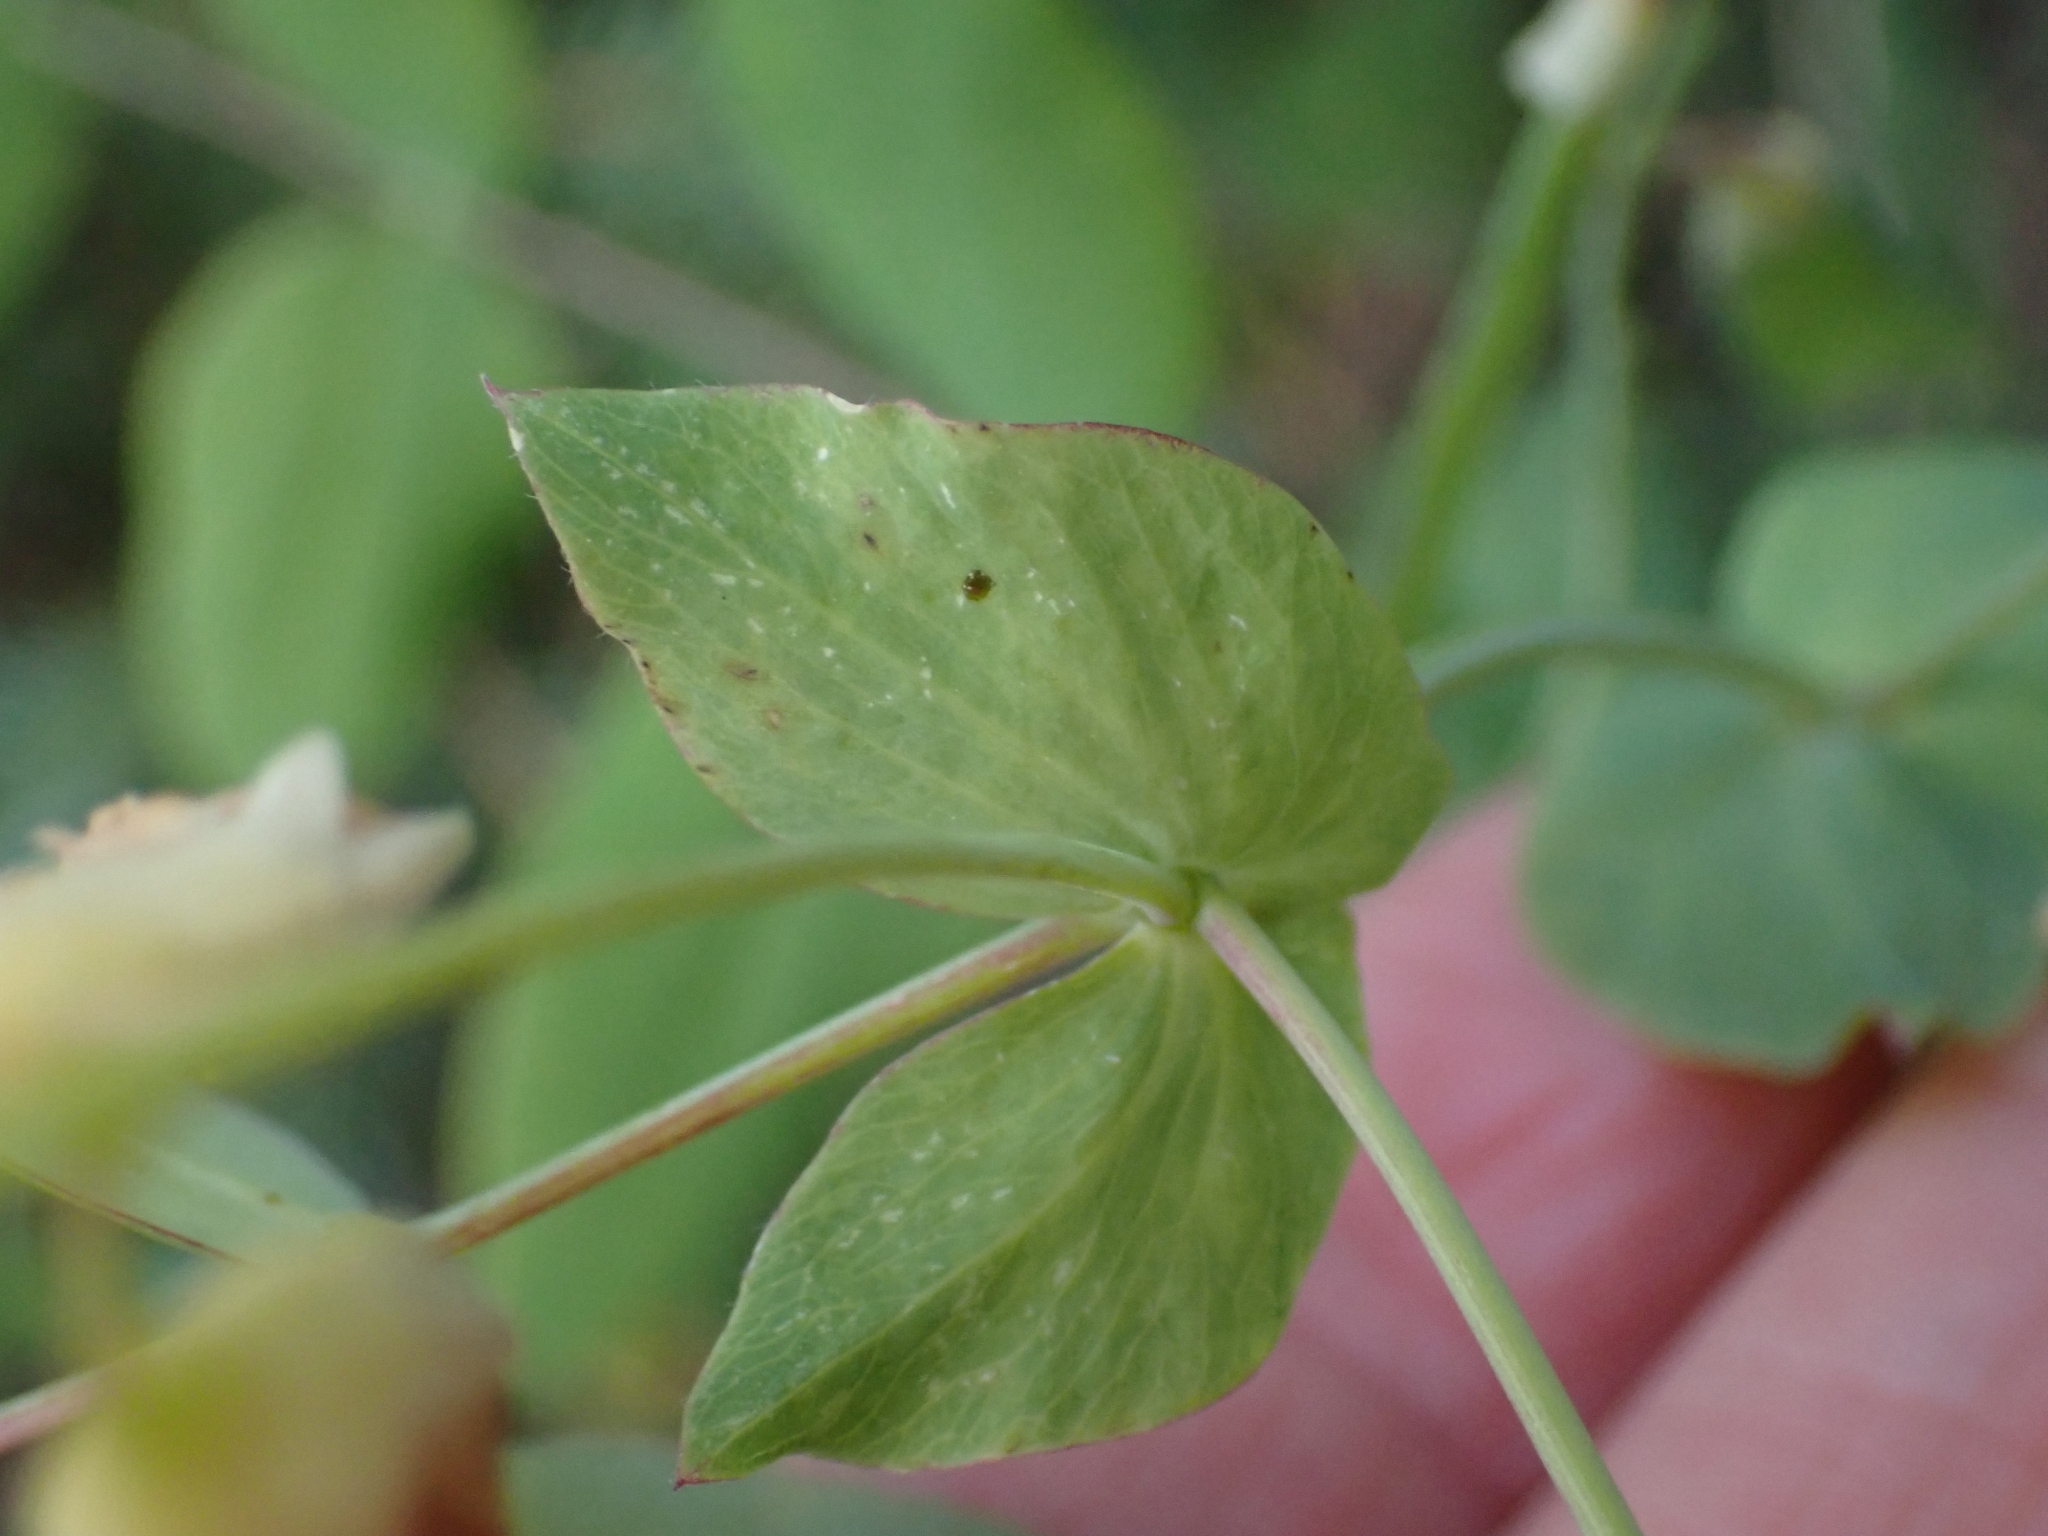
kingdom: Plantae
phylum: Tracheophyta
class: Magnoliopsida
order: Fabales
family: Fabaceae
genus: Lathyrus
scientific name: Lathyrus ochroleucus
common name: Pale vetchling
